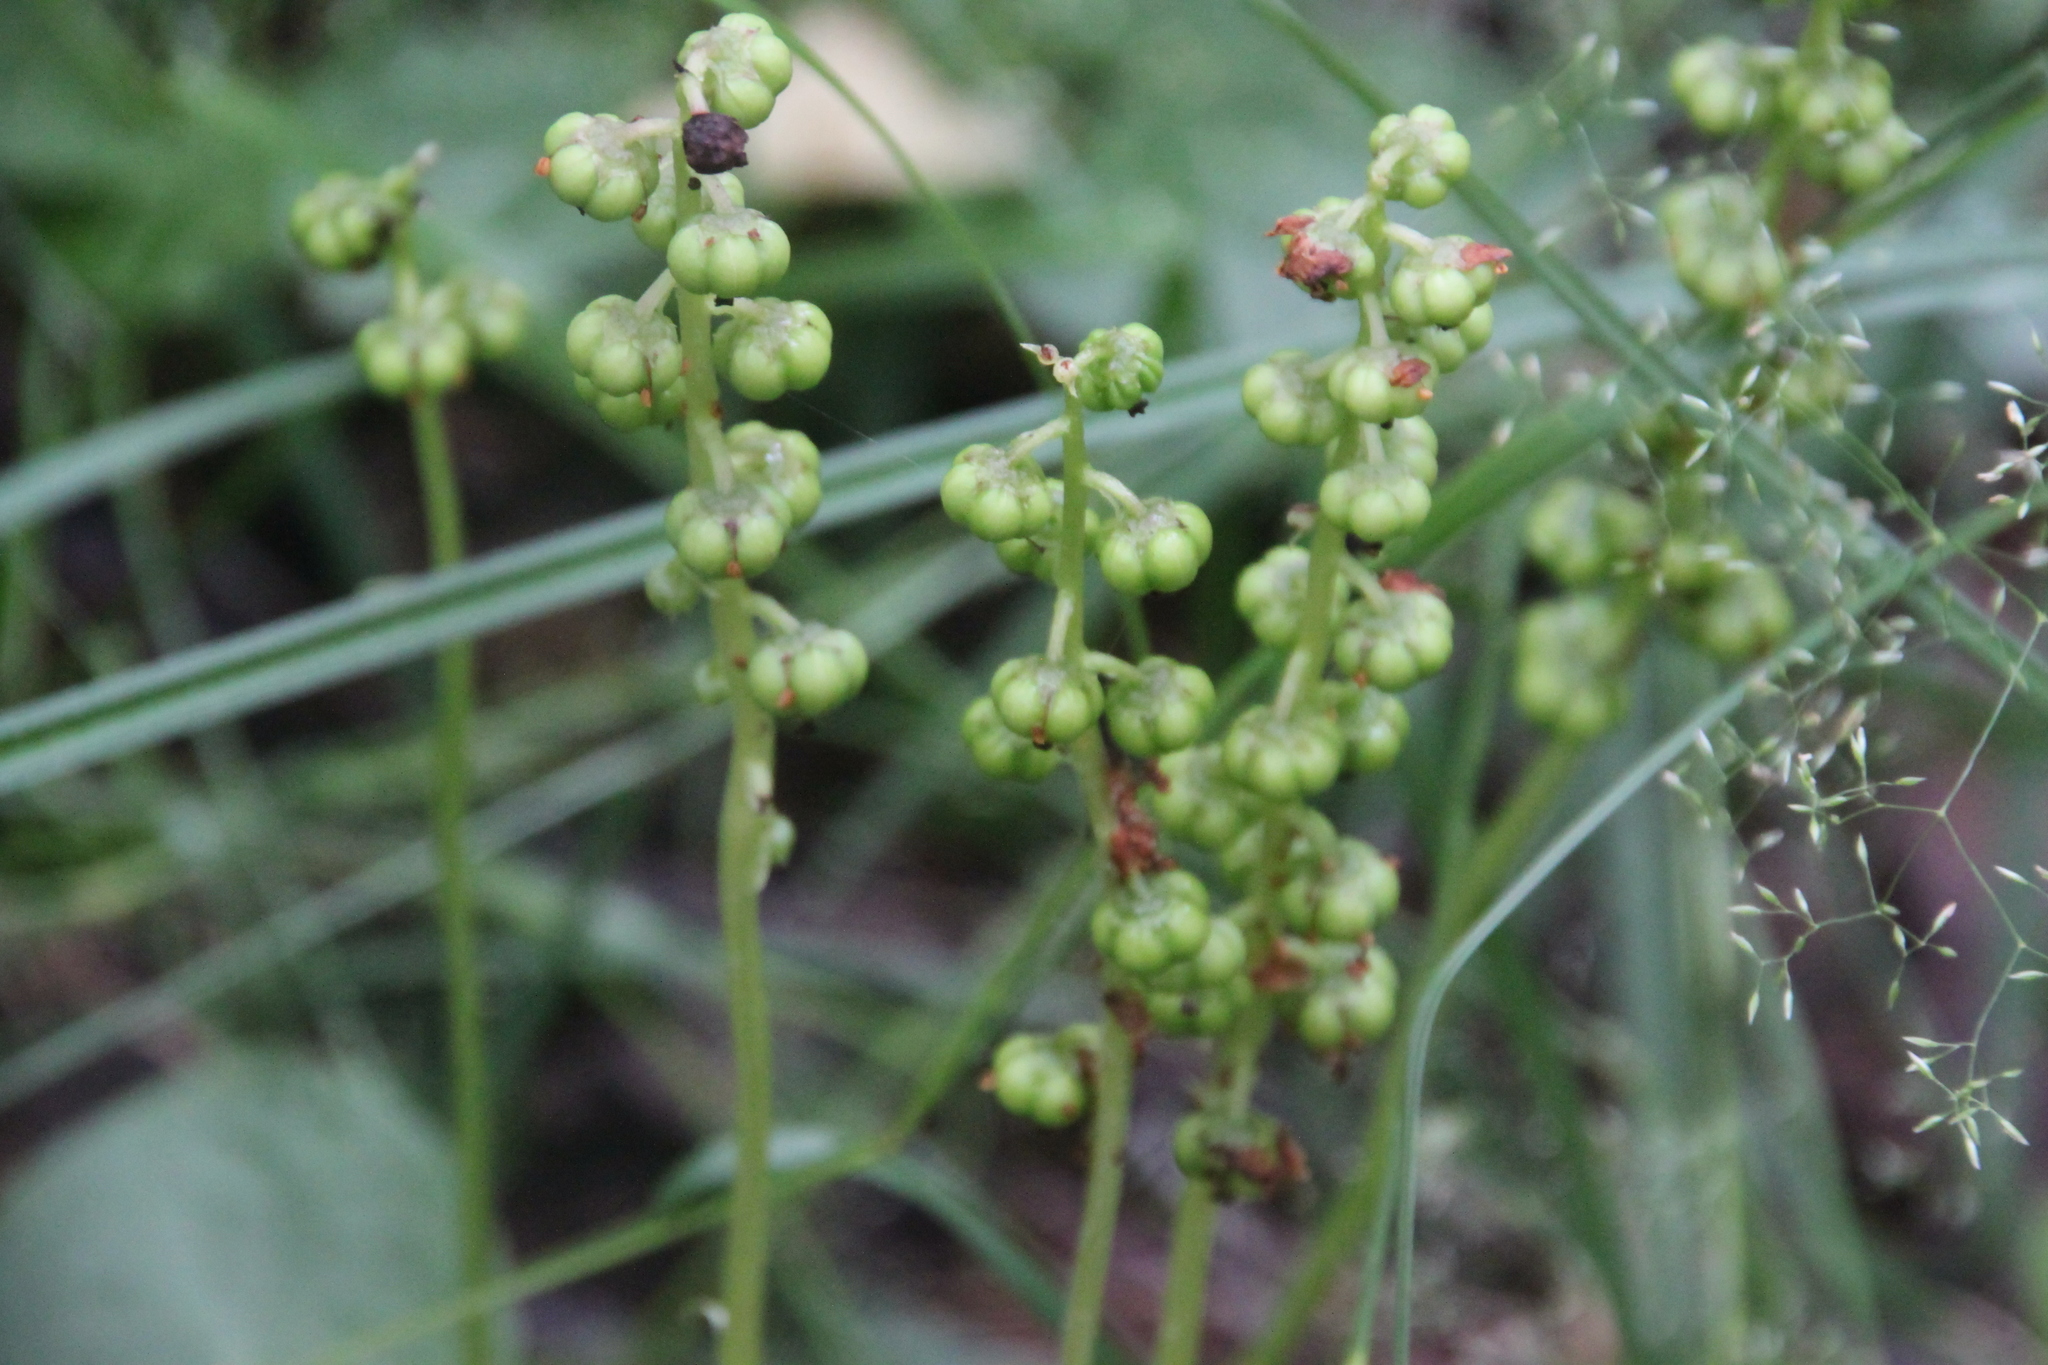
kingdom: Plantae
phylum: Tracheophyta
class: Magnoliopsida
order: Ericales
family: Ericaceae
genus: Pyrola
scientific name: Pyrola minor
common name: Common wintergreen
